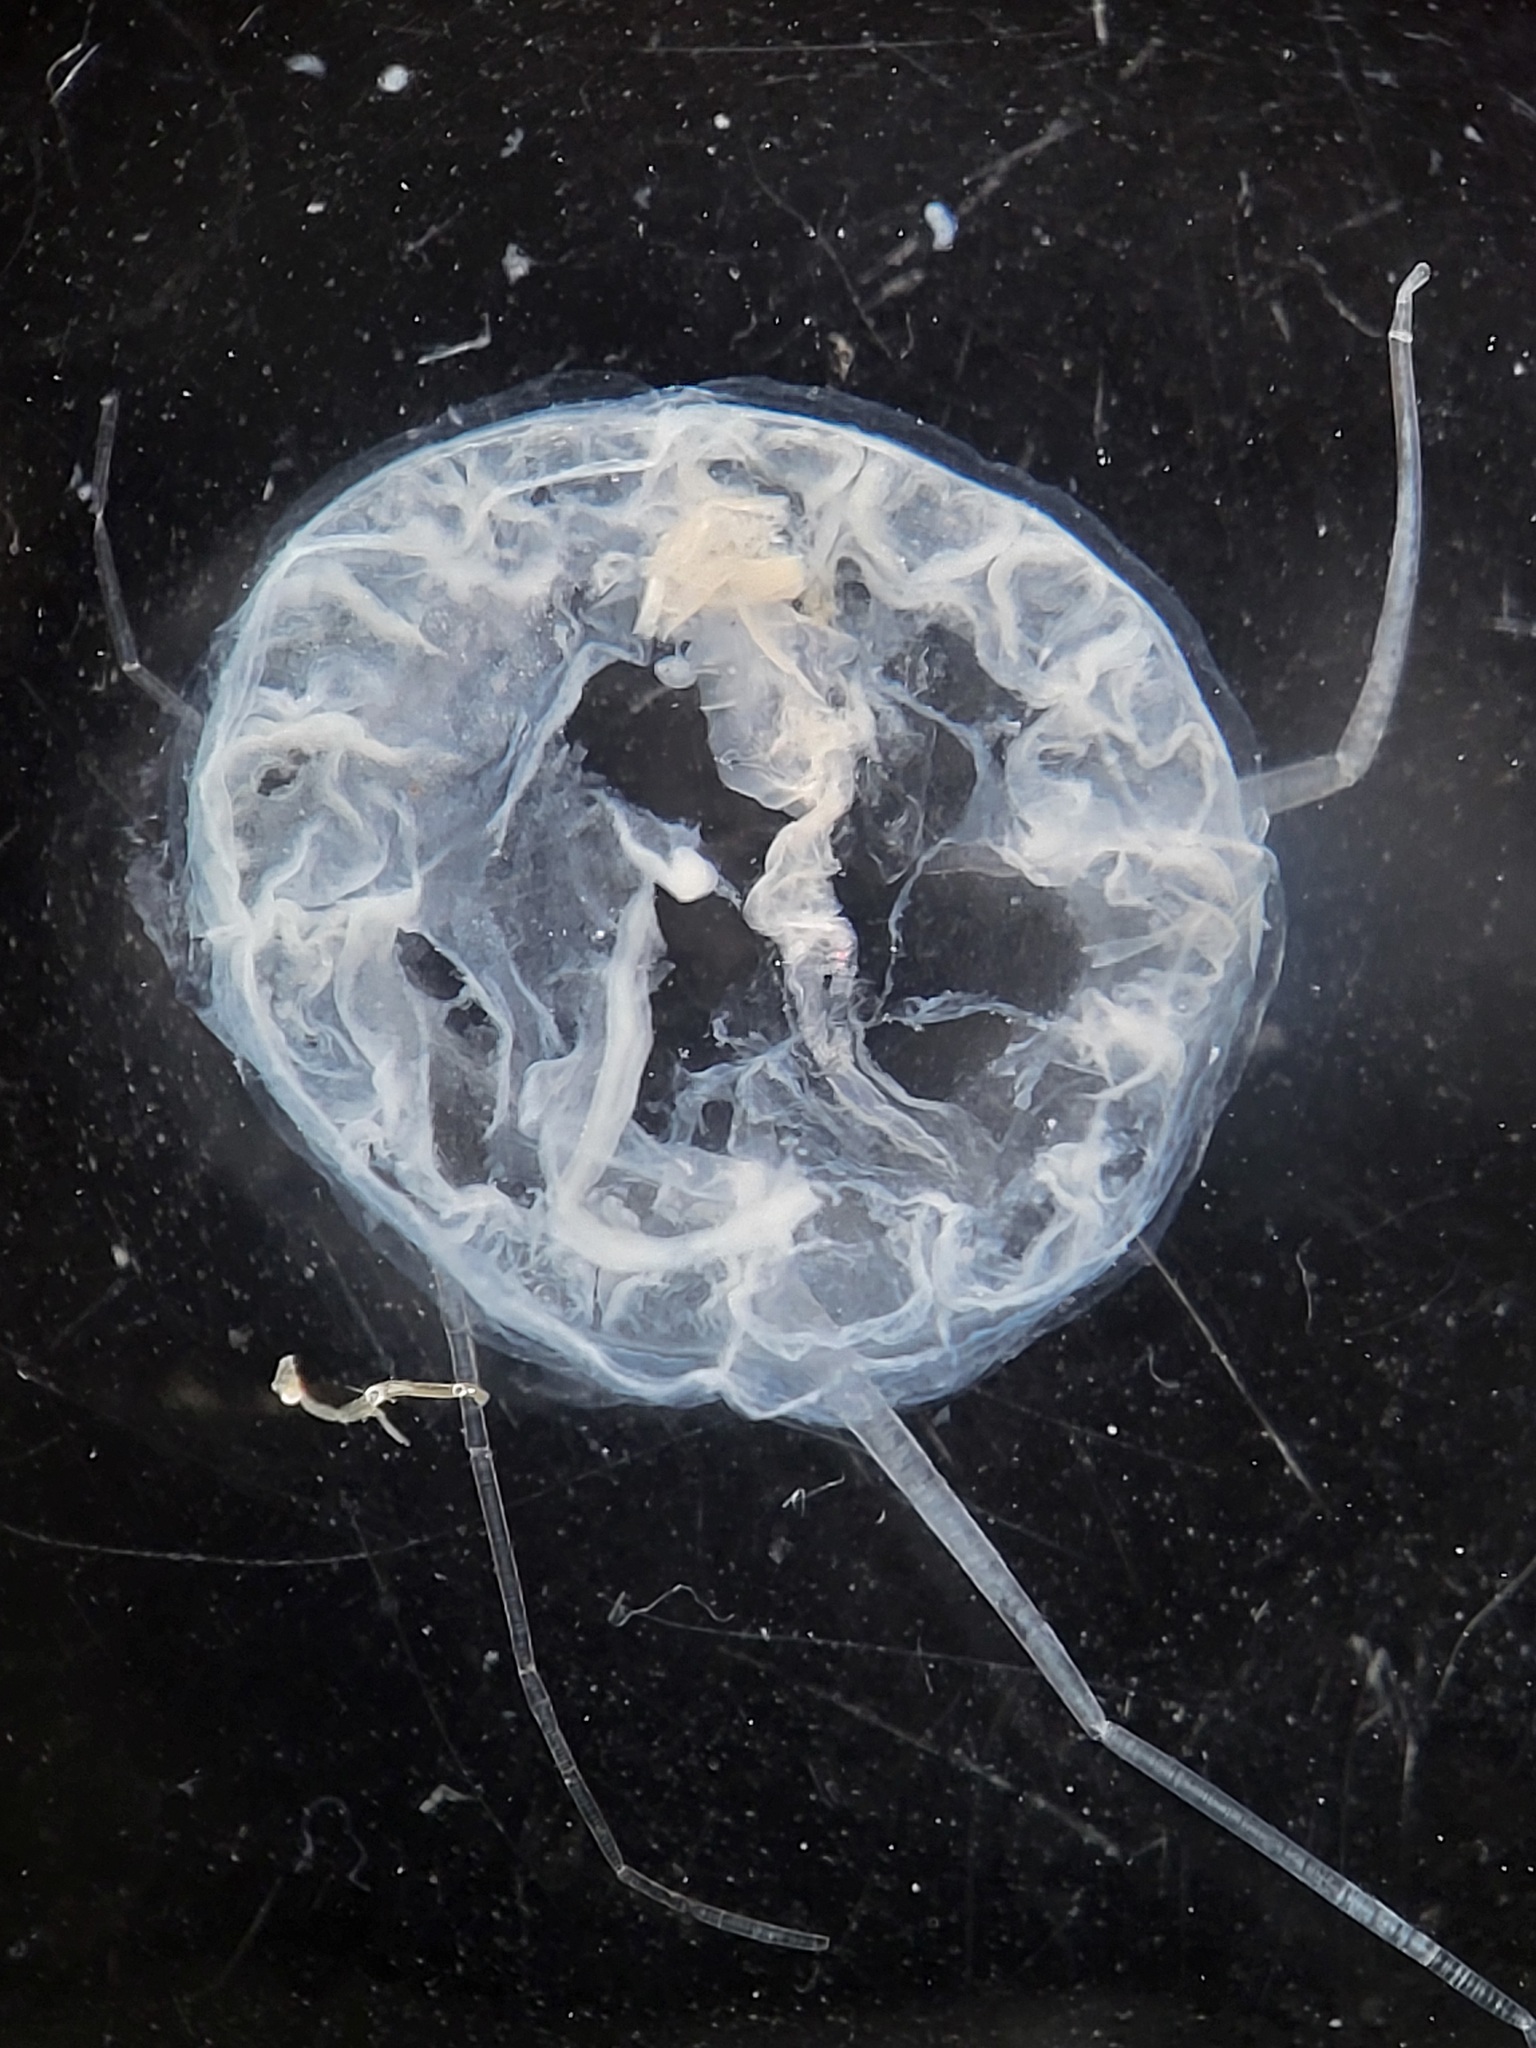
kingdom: Animalia
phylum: Cnidaria
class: Hydrozoa
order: Narcomedusae
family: Solmundaeginidae
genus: Aeginopsis
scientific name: Aeginopsis laurentii
